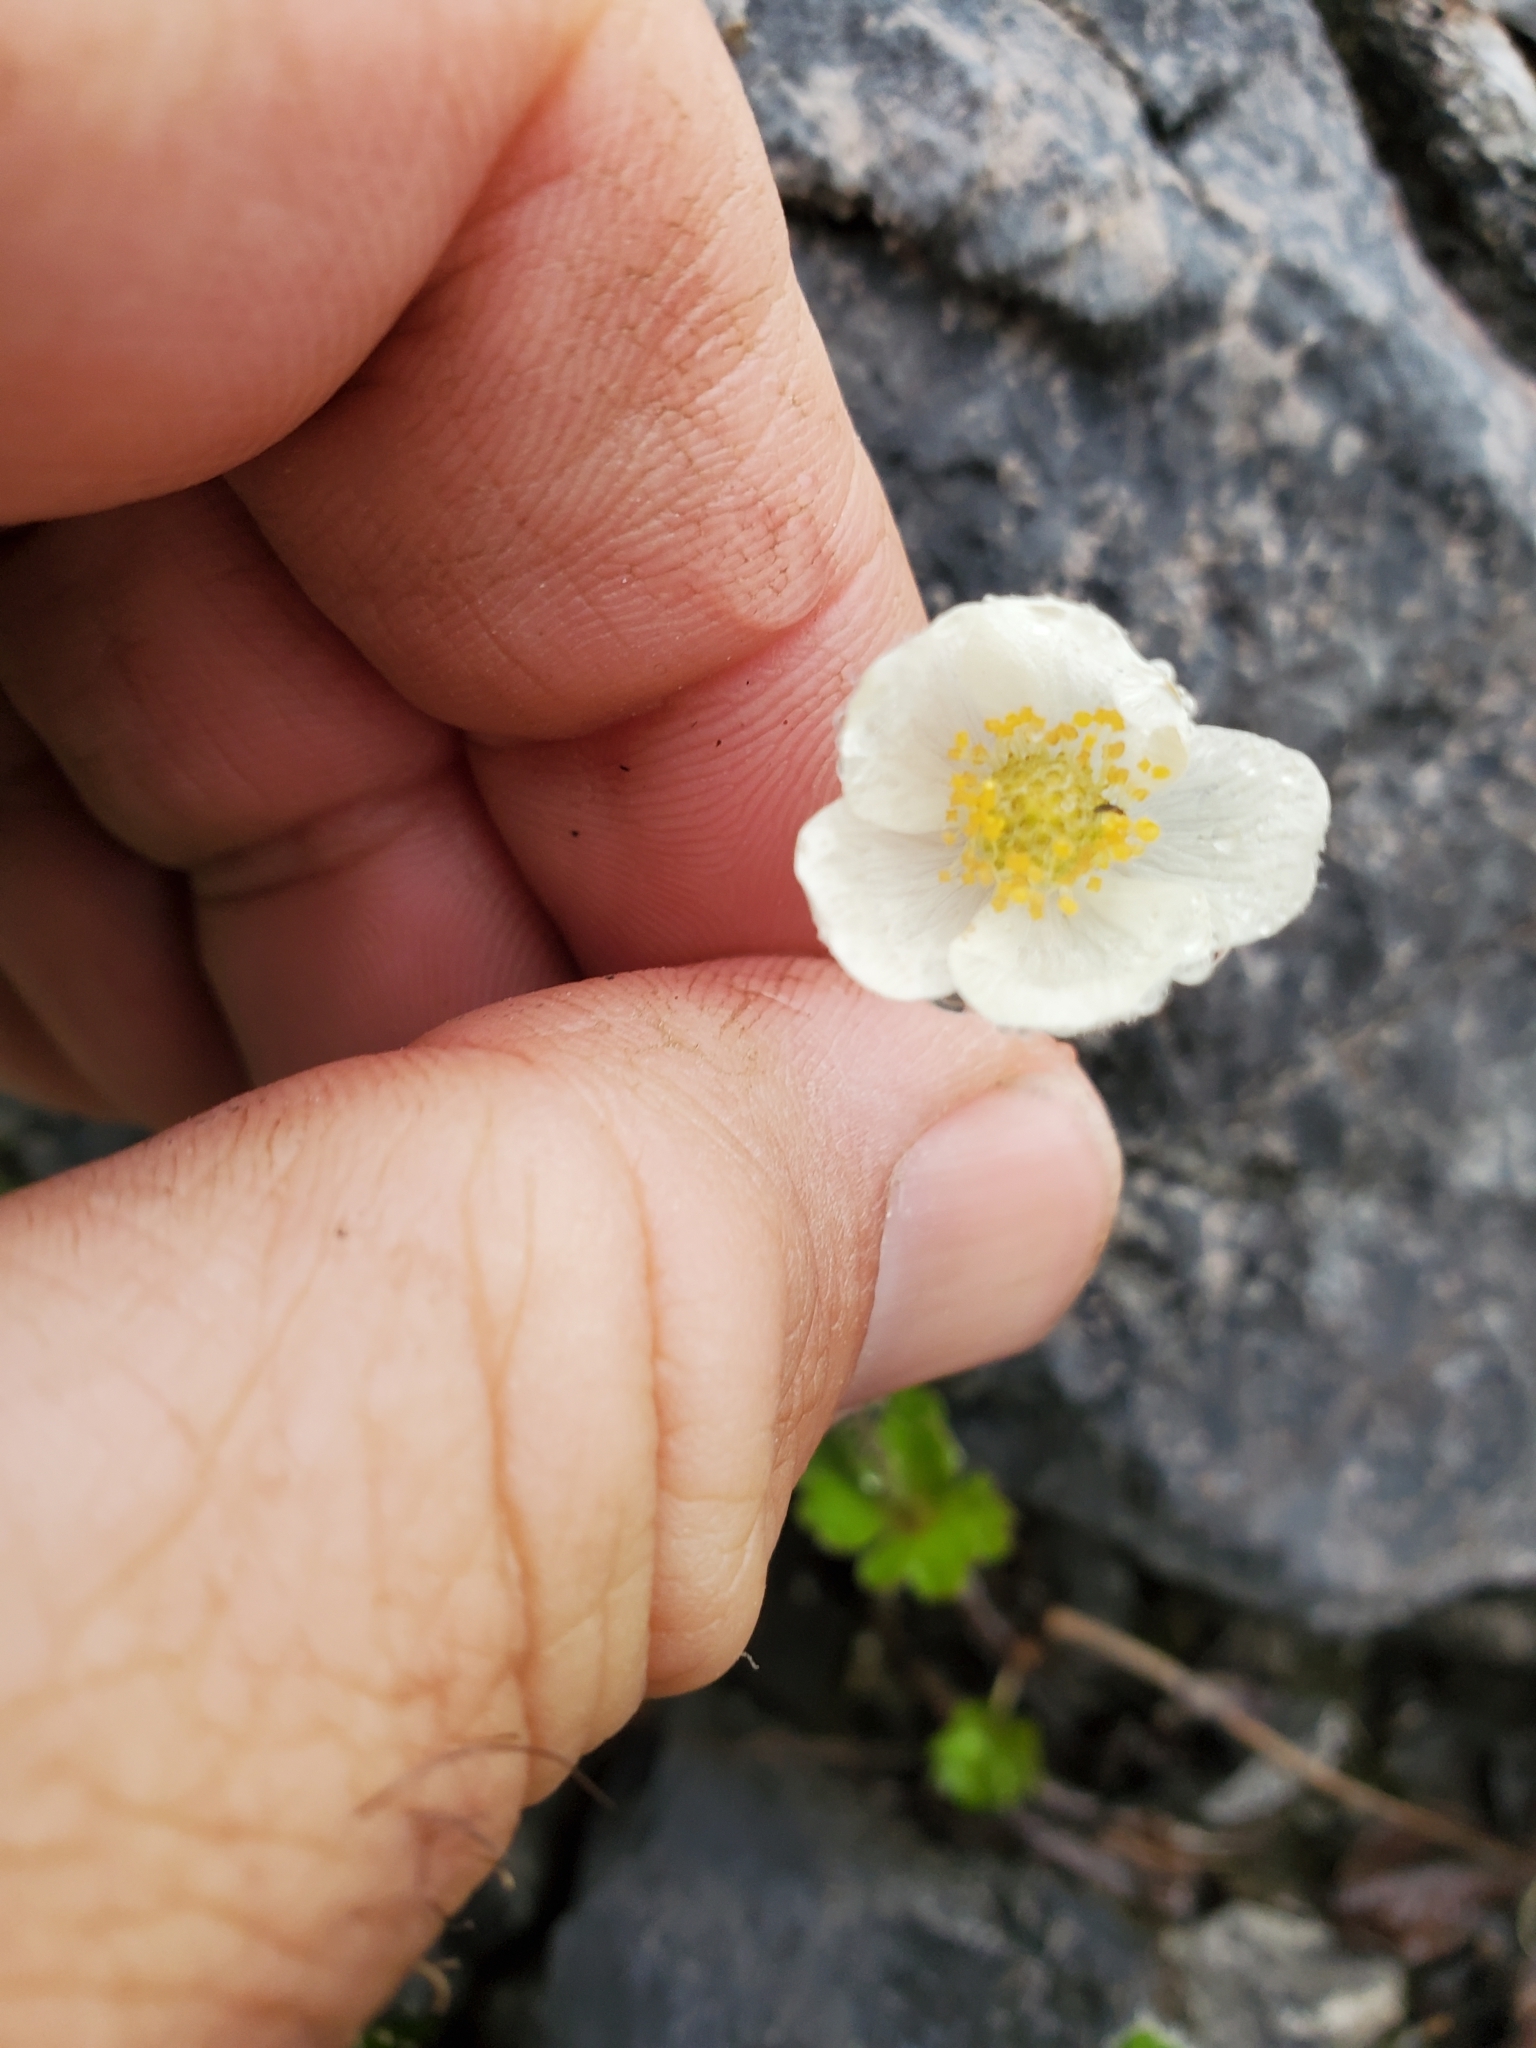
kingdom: Plantae
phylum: Tracheophyta
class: Magnoliopsida
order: Ranunculales
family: Ranunculaceae
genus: Anemone
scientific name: Anemone parviflora
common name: Northern anemone
